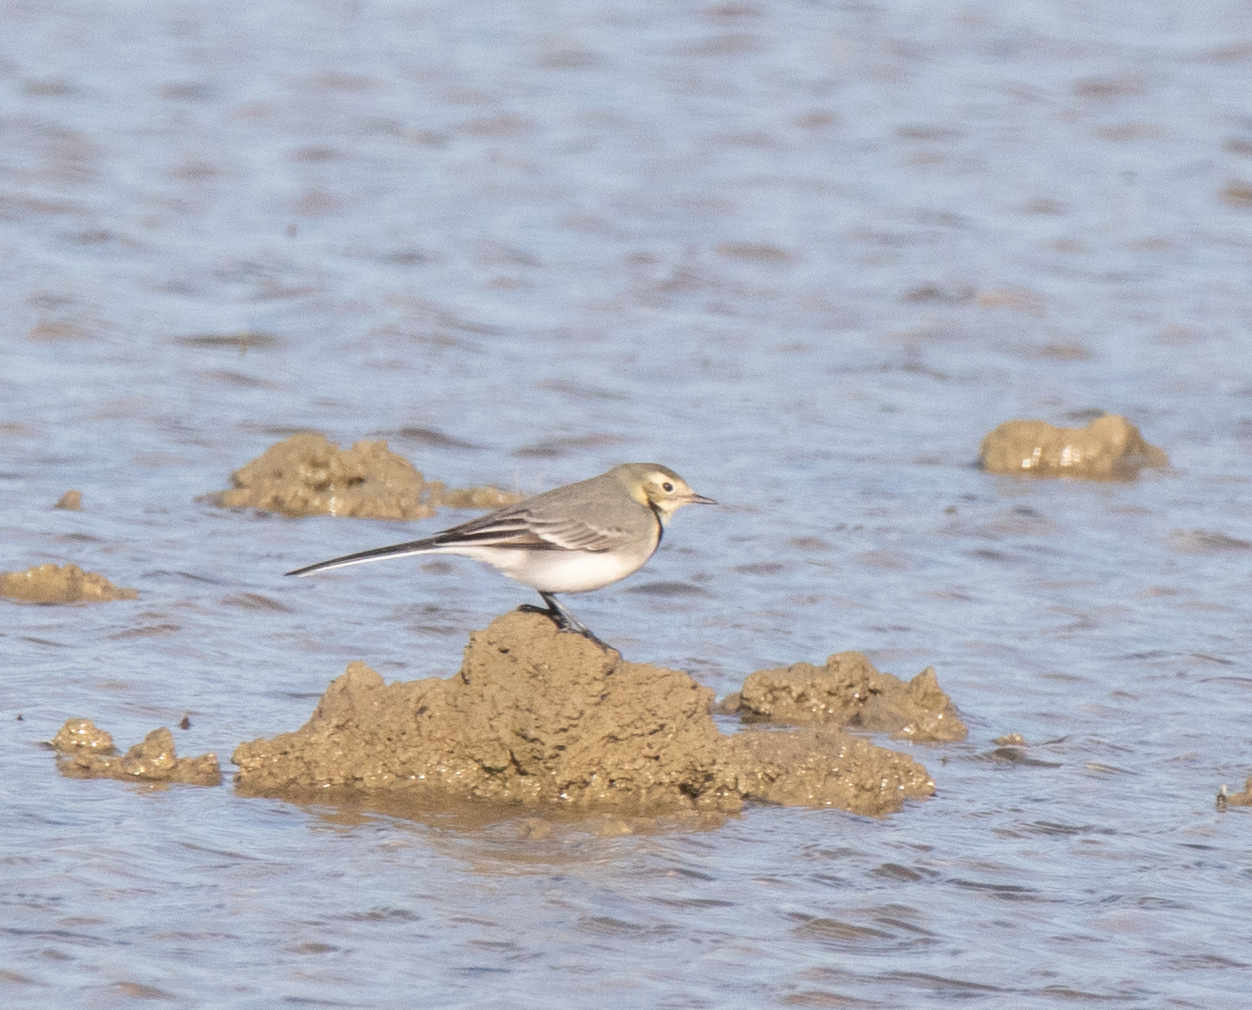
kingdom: Animalia
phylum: Chordata
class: Aves
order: Passeriformes
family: Motacillidae
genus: Motacilla
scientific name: Motacilla alba
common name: White wagtail
